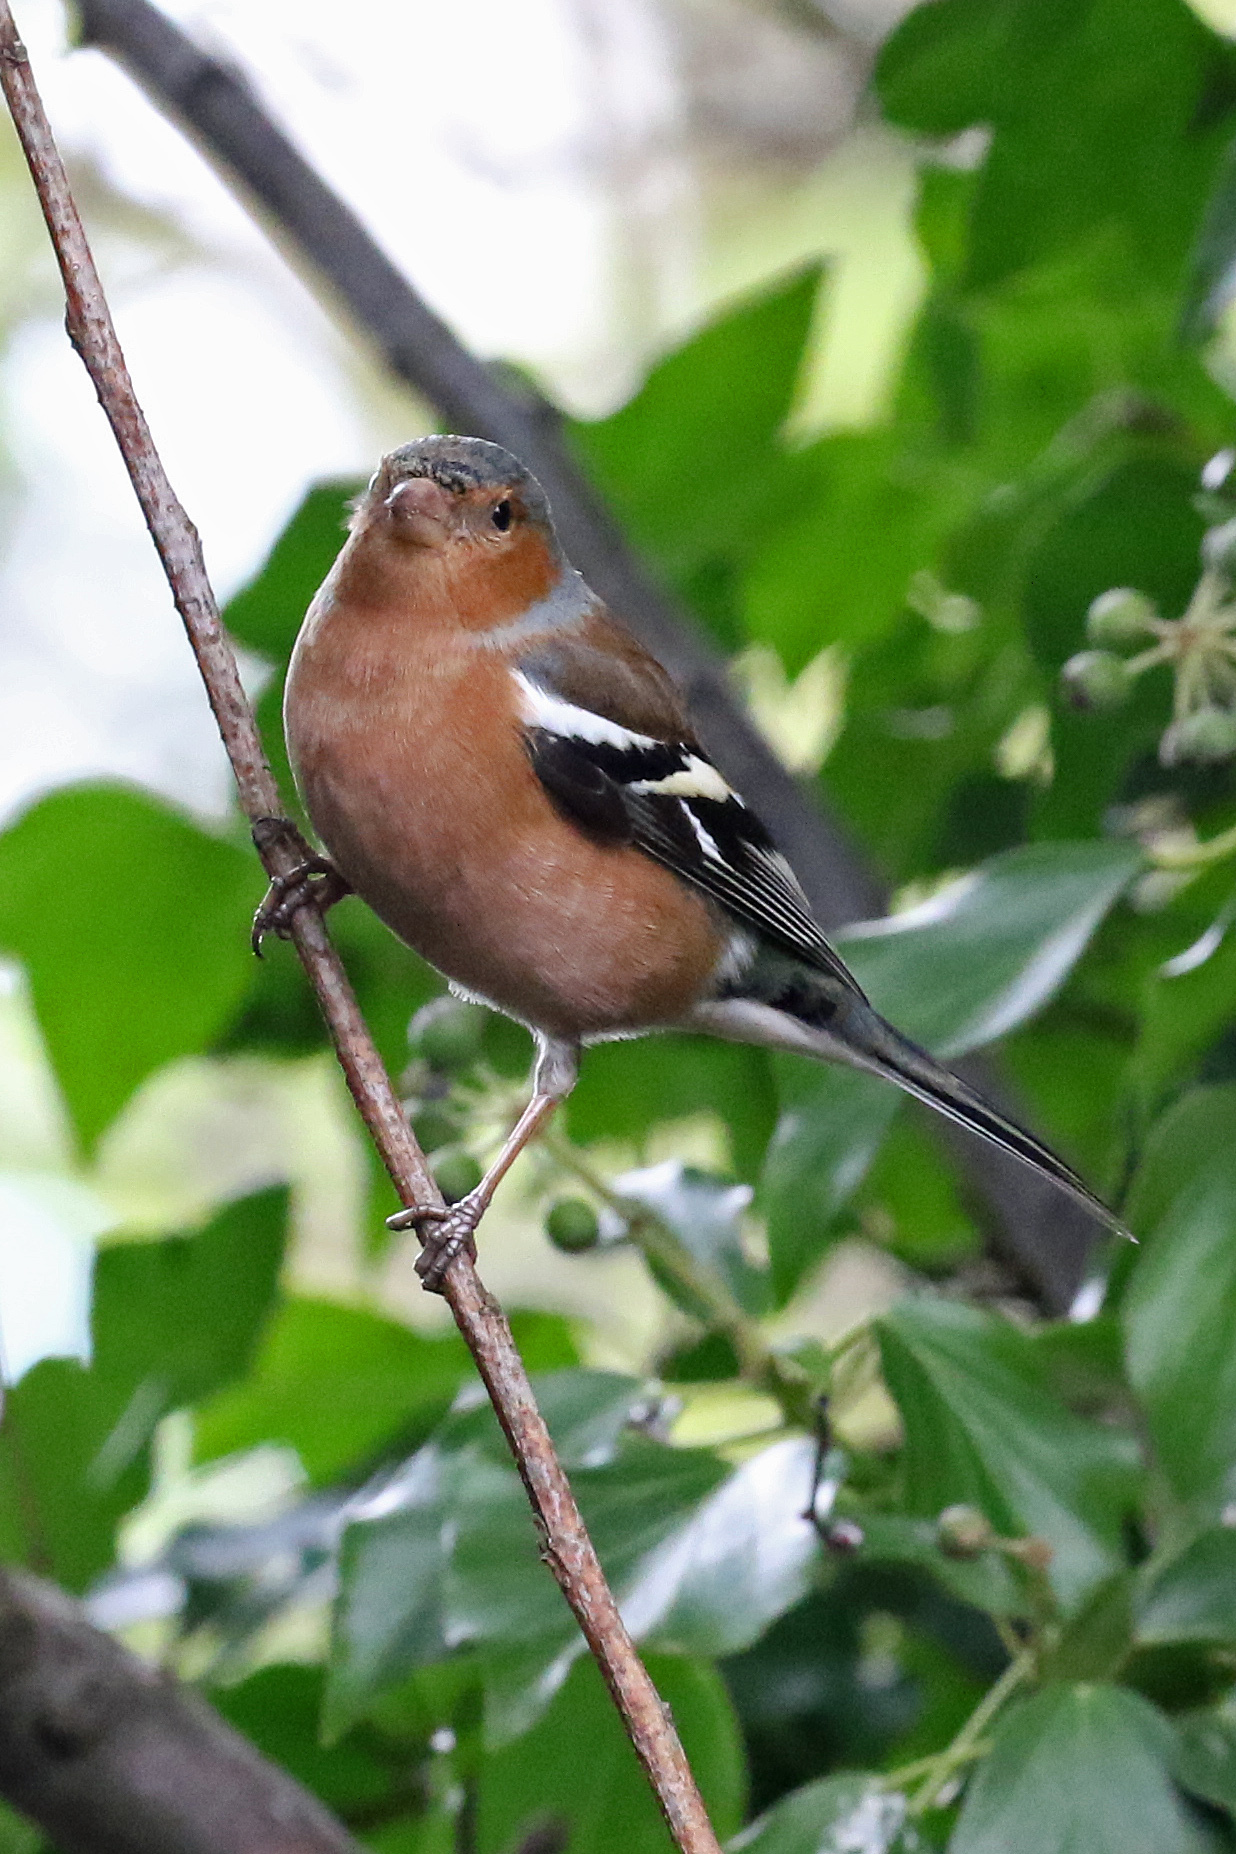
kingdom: Animalia
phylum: Chordata
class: Aves
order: Passeriformes
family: Fringillidae
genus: Fringilla
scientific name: Fringilla coelebs
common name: Common chaffinch
